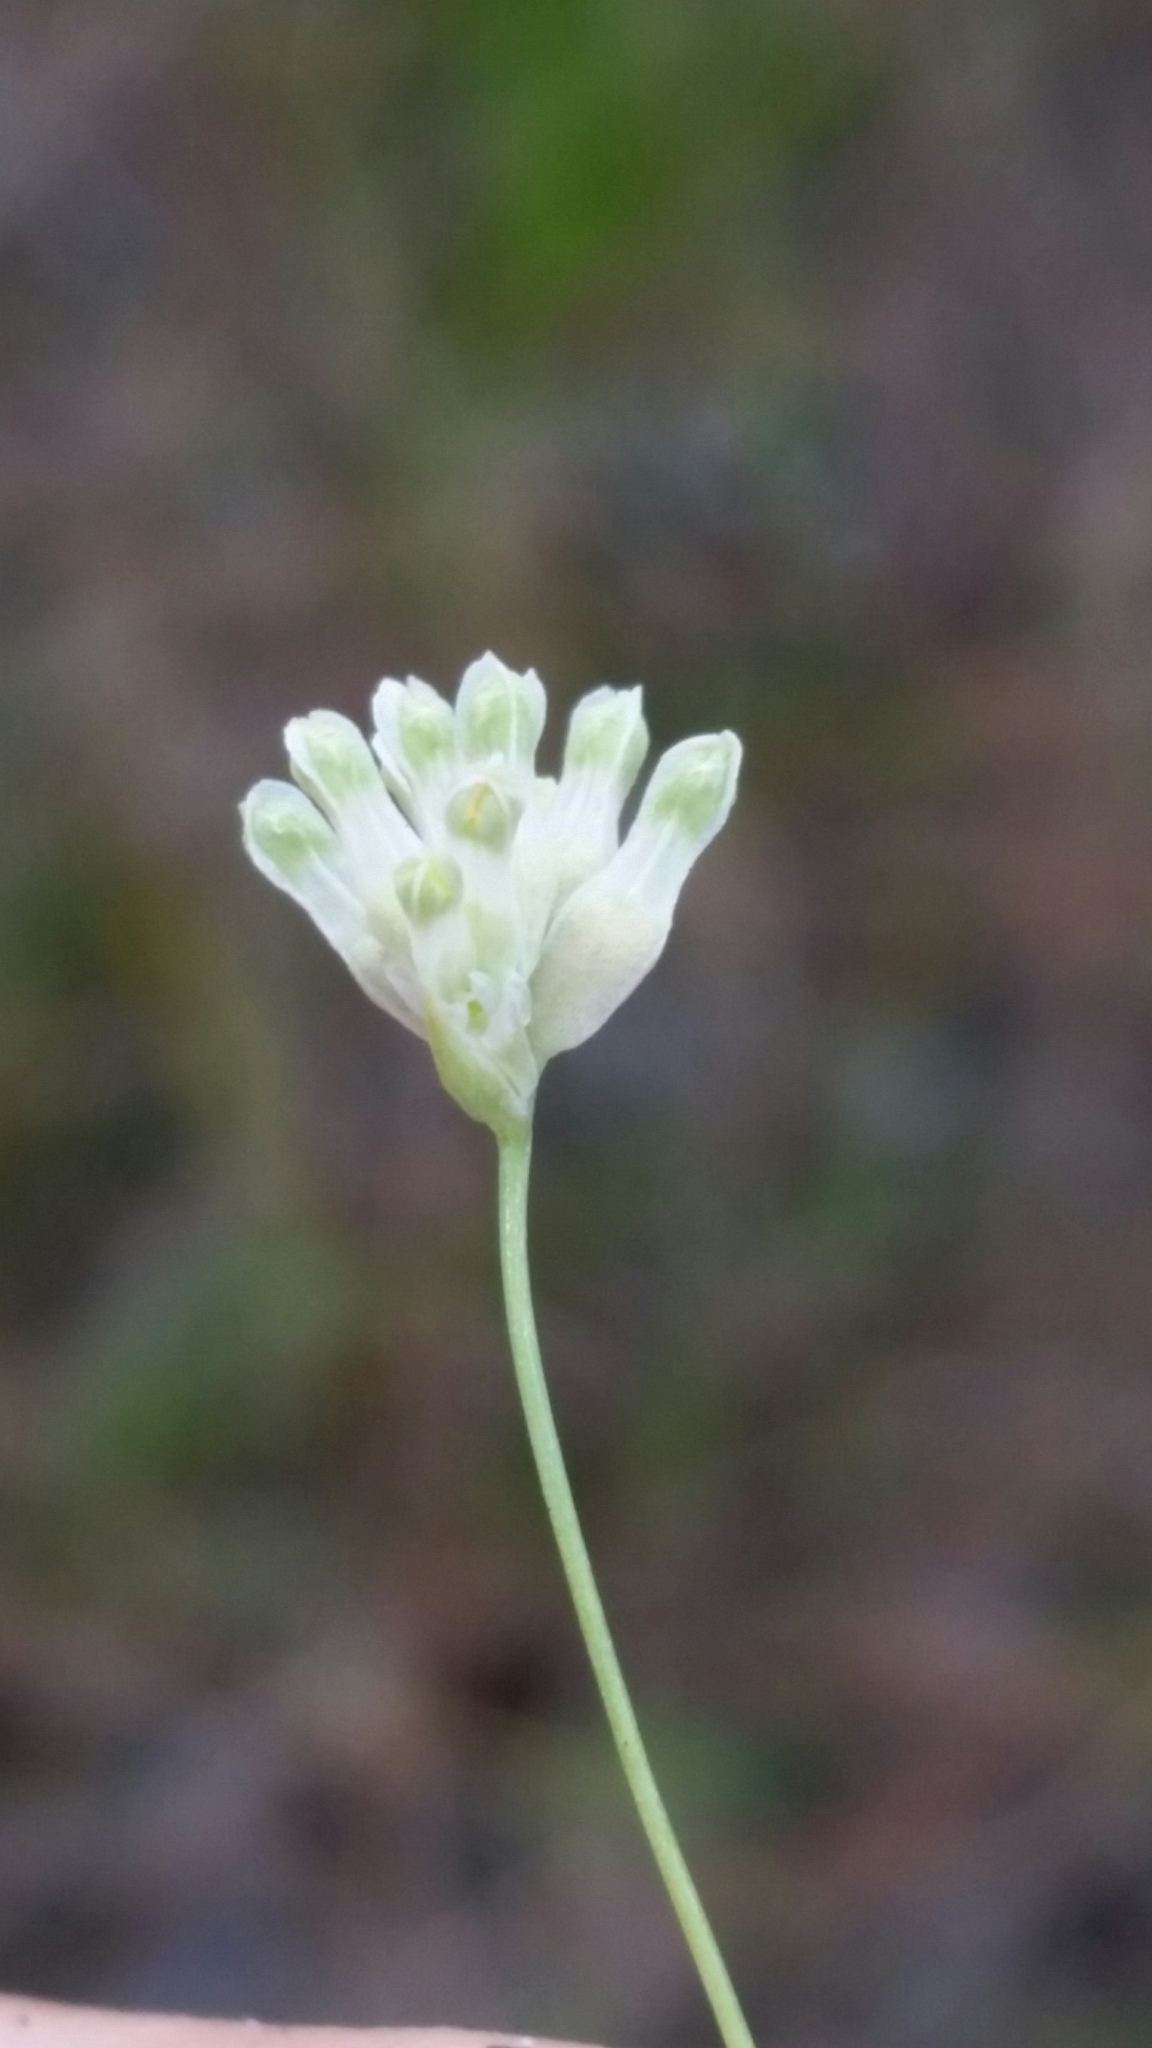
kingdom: Plantae
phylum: Tracheophyta
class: Liliopsida
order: Dioscoreales
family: Burmanniaceae
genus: Burmannia
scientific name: Burmannia capitata
